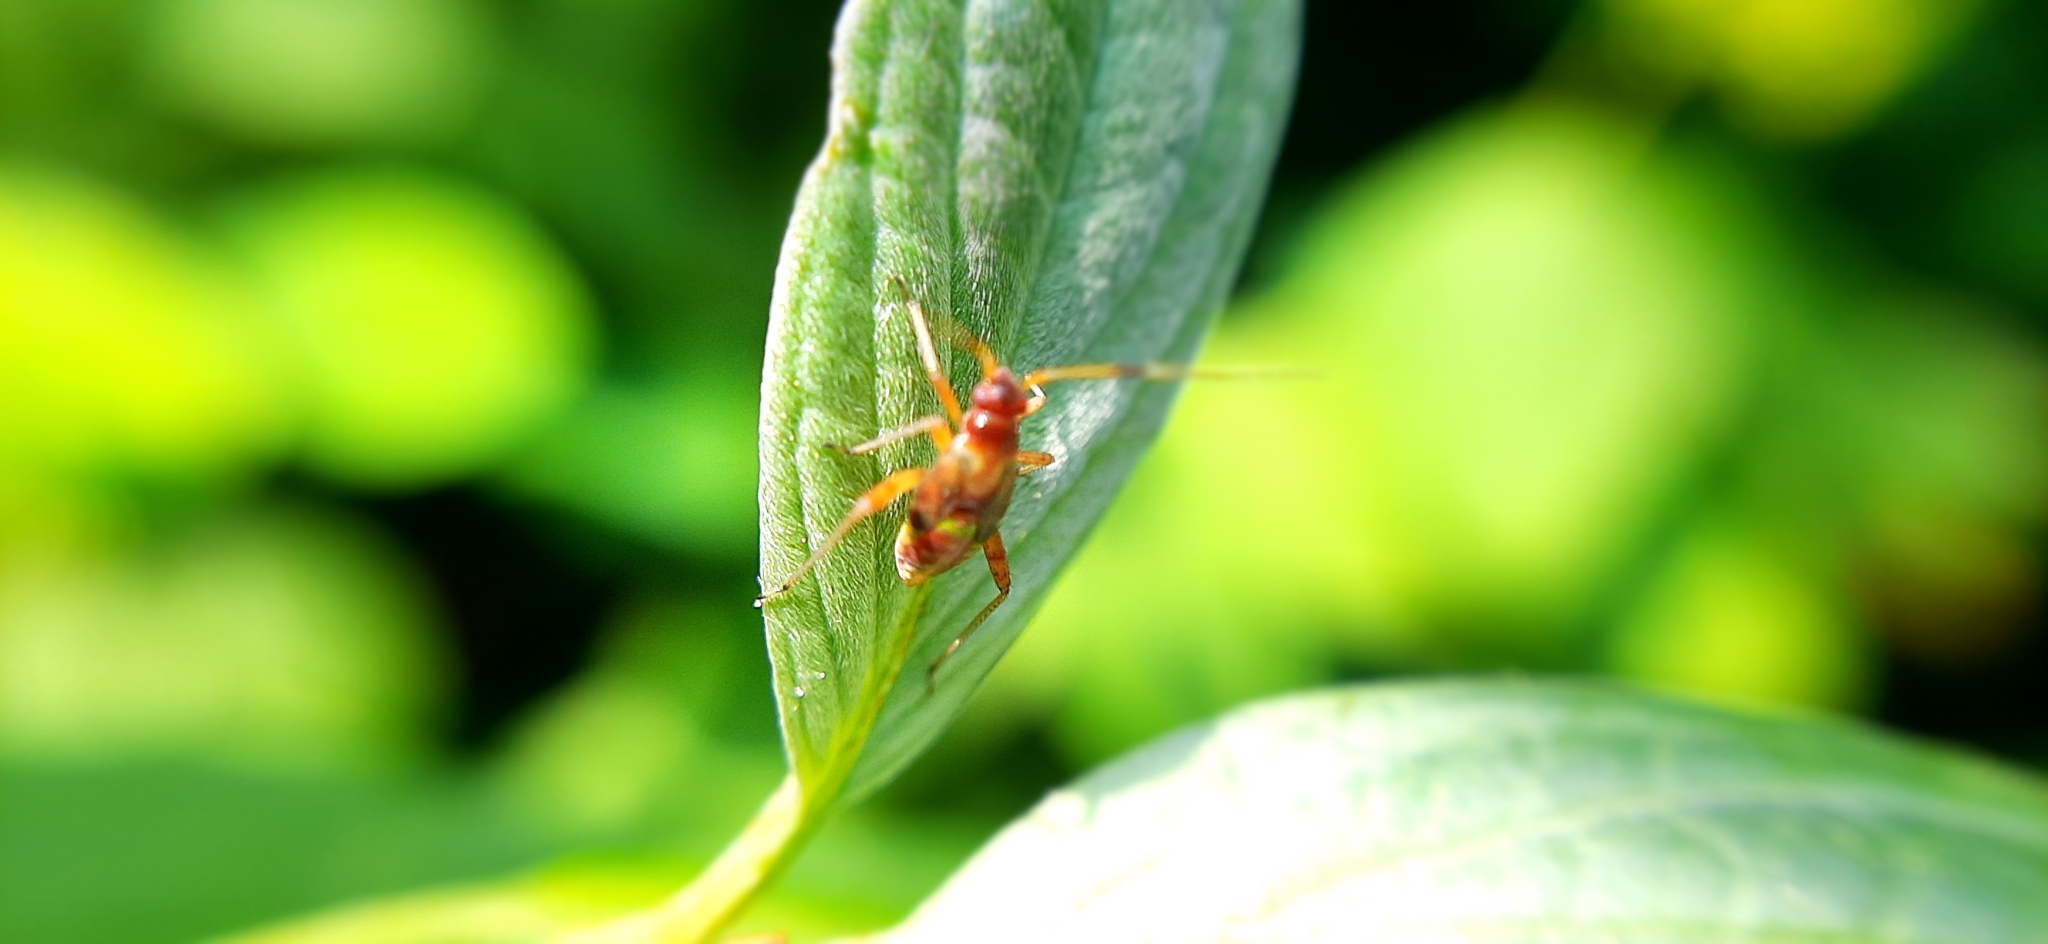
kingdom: Animalia
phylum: Arthropoda
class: Insecta
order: Hemiptera
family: Miridae
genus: Closterotomus
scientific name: Closterotomus fulvomaculatus
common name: Spotted plant bug
